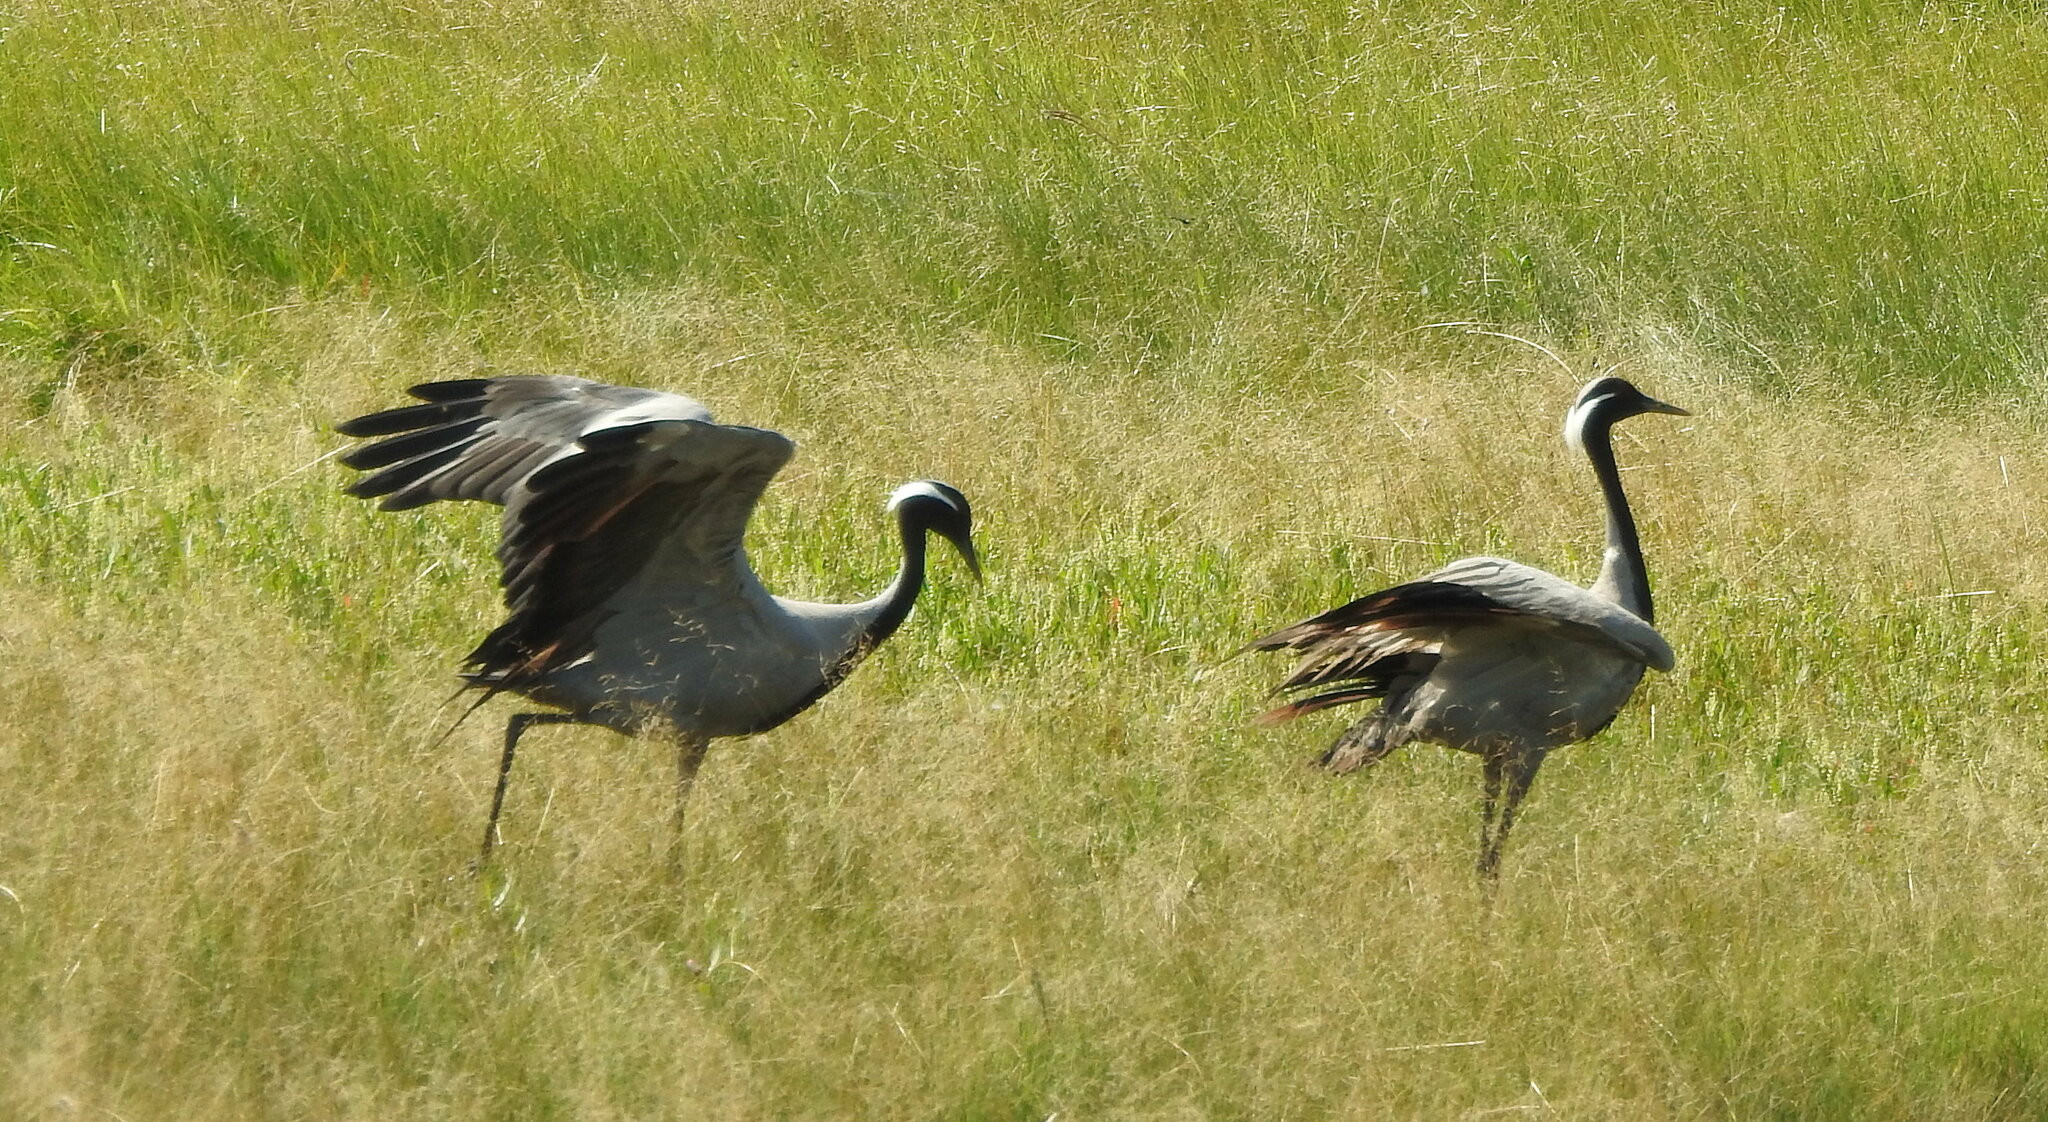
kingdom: Animalia
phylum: Chordata
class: Aves
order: Gruiformes
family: Gruidae
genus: Anthropoides
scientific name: Anthropoides virgo
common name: Demoiselle crane
